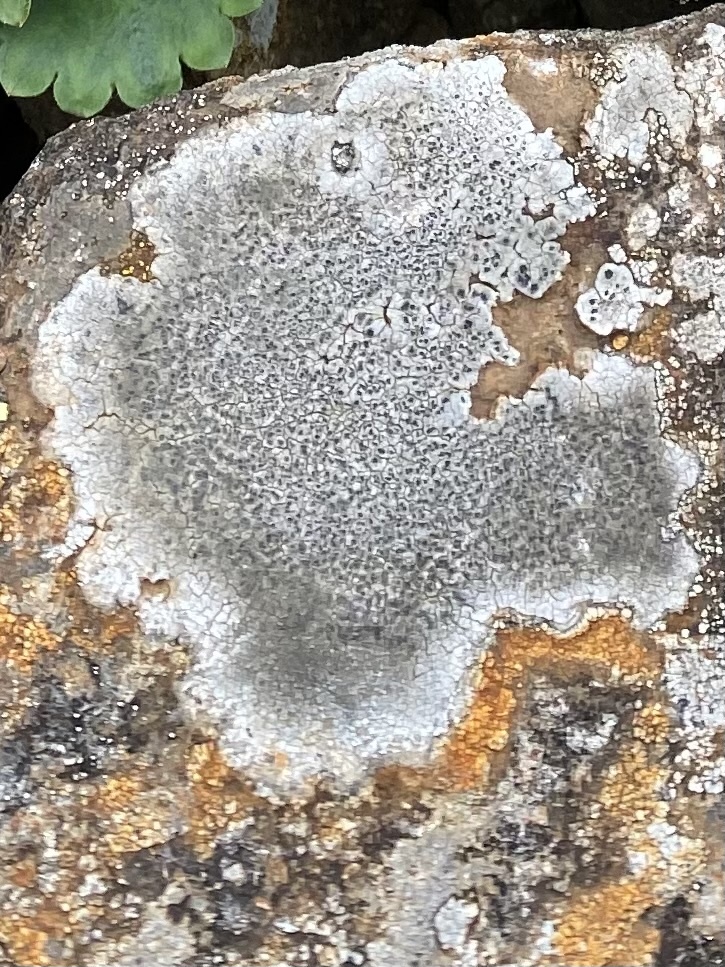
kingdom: Fungi
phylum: Ascomycota
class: Lecanoromycetes
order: Lecanorales
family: Lecanoraceae
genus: Protoparmeliopsis
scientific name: Protoparmeliopsis muralis
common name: Stonewall rim lichen
